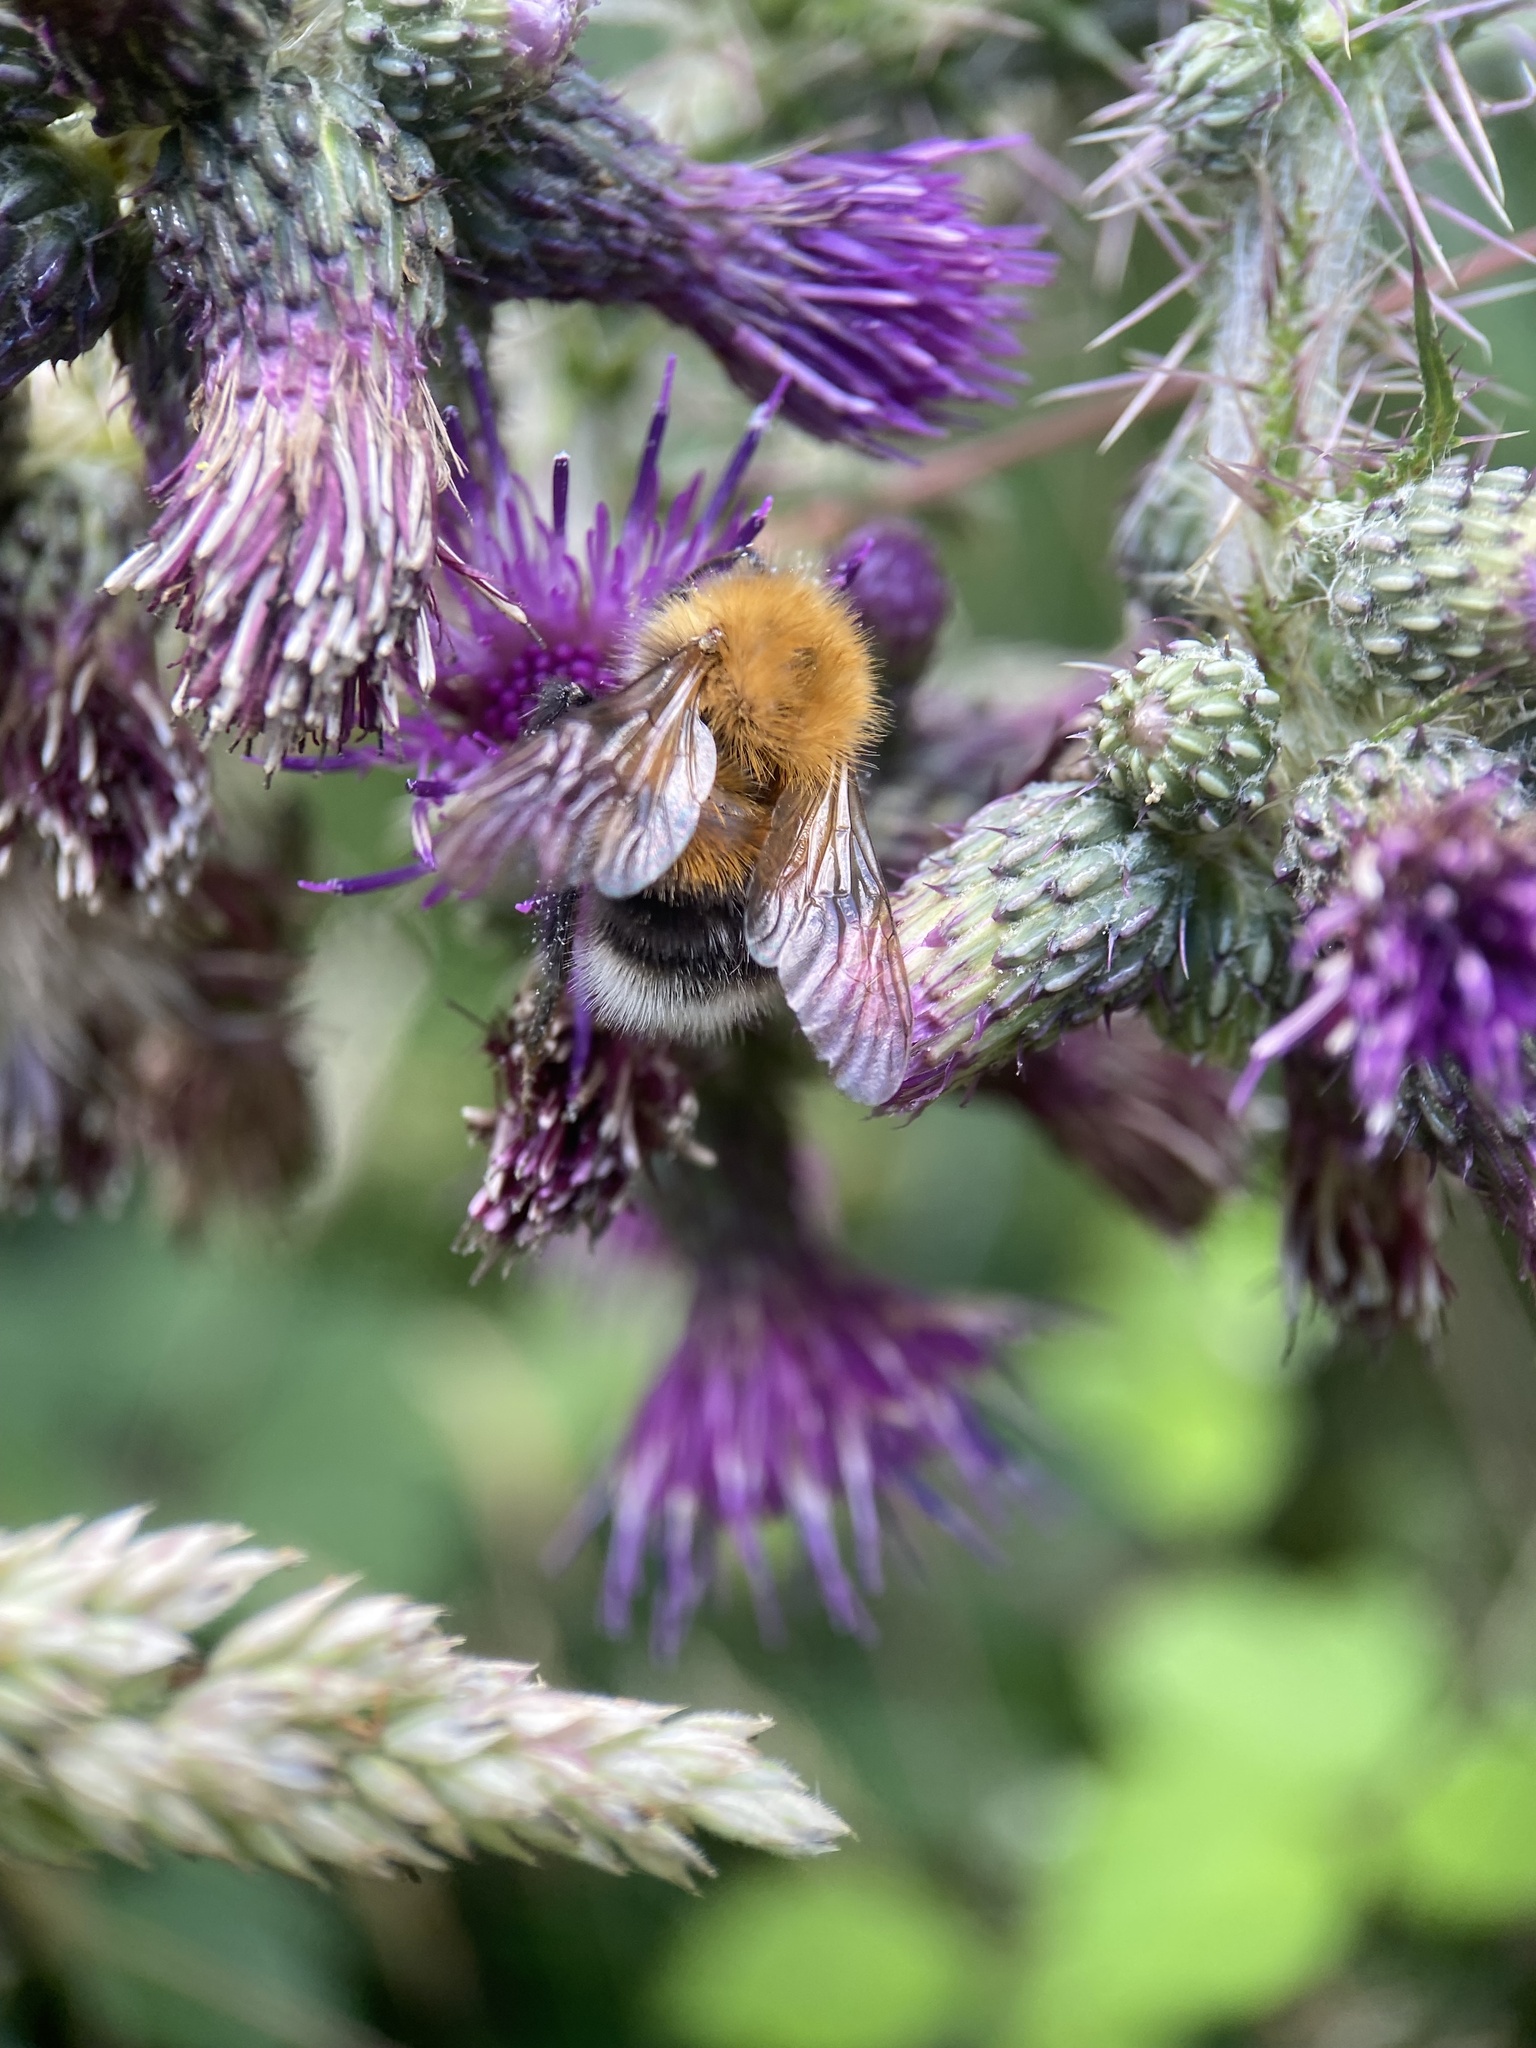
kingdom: Animalia
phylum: Arthropoda
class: Insecta
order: Hymenoptera
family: Apidae
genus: Bombus
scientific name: Bombus hypnorum
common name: New garden bumblebee
